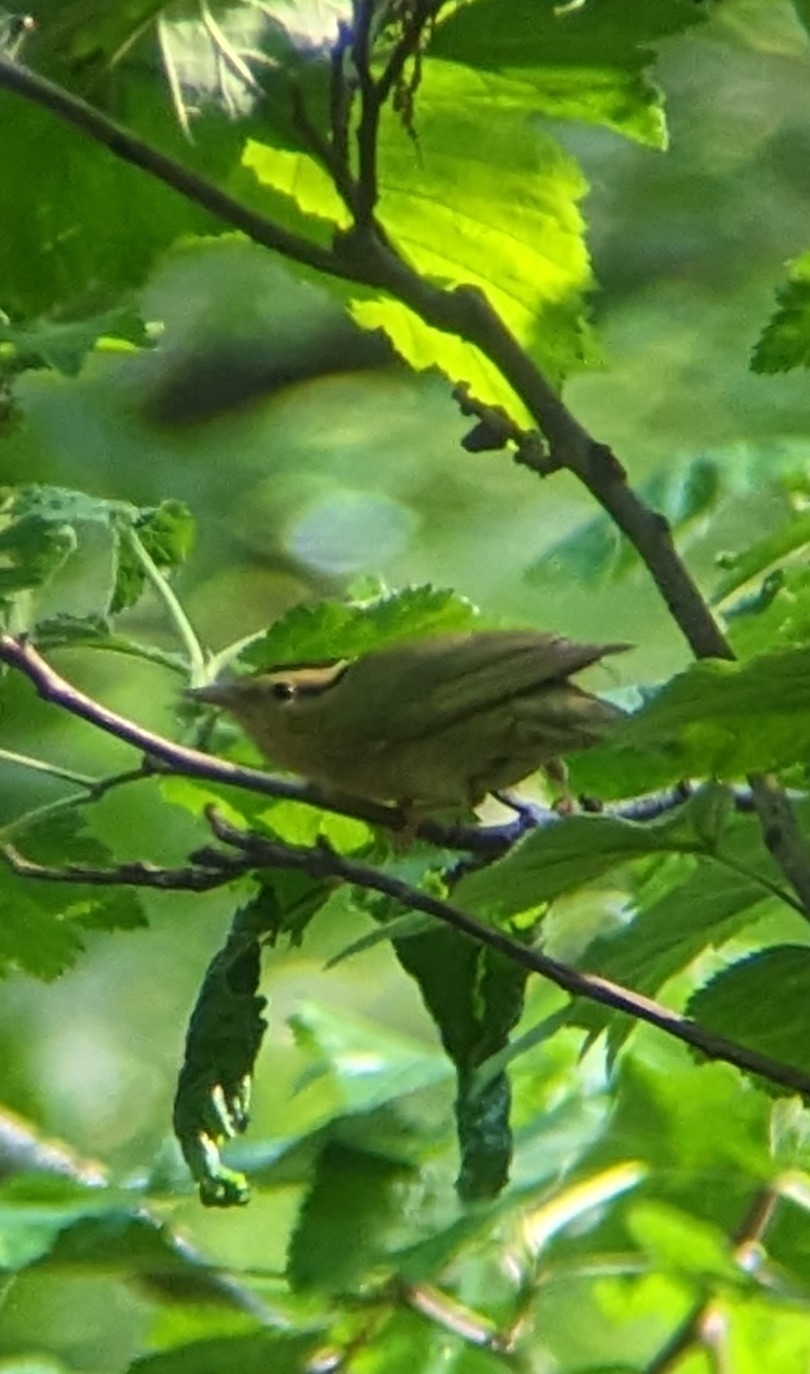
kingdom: Animalia
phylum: Chordata
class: Aves
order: Passeriformes
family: Parulidae
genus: Helmitheros
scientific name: Helmitheros vermivorum
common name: Worm-eating warbler
